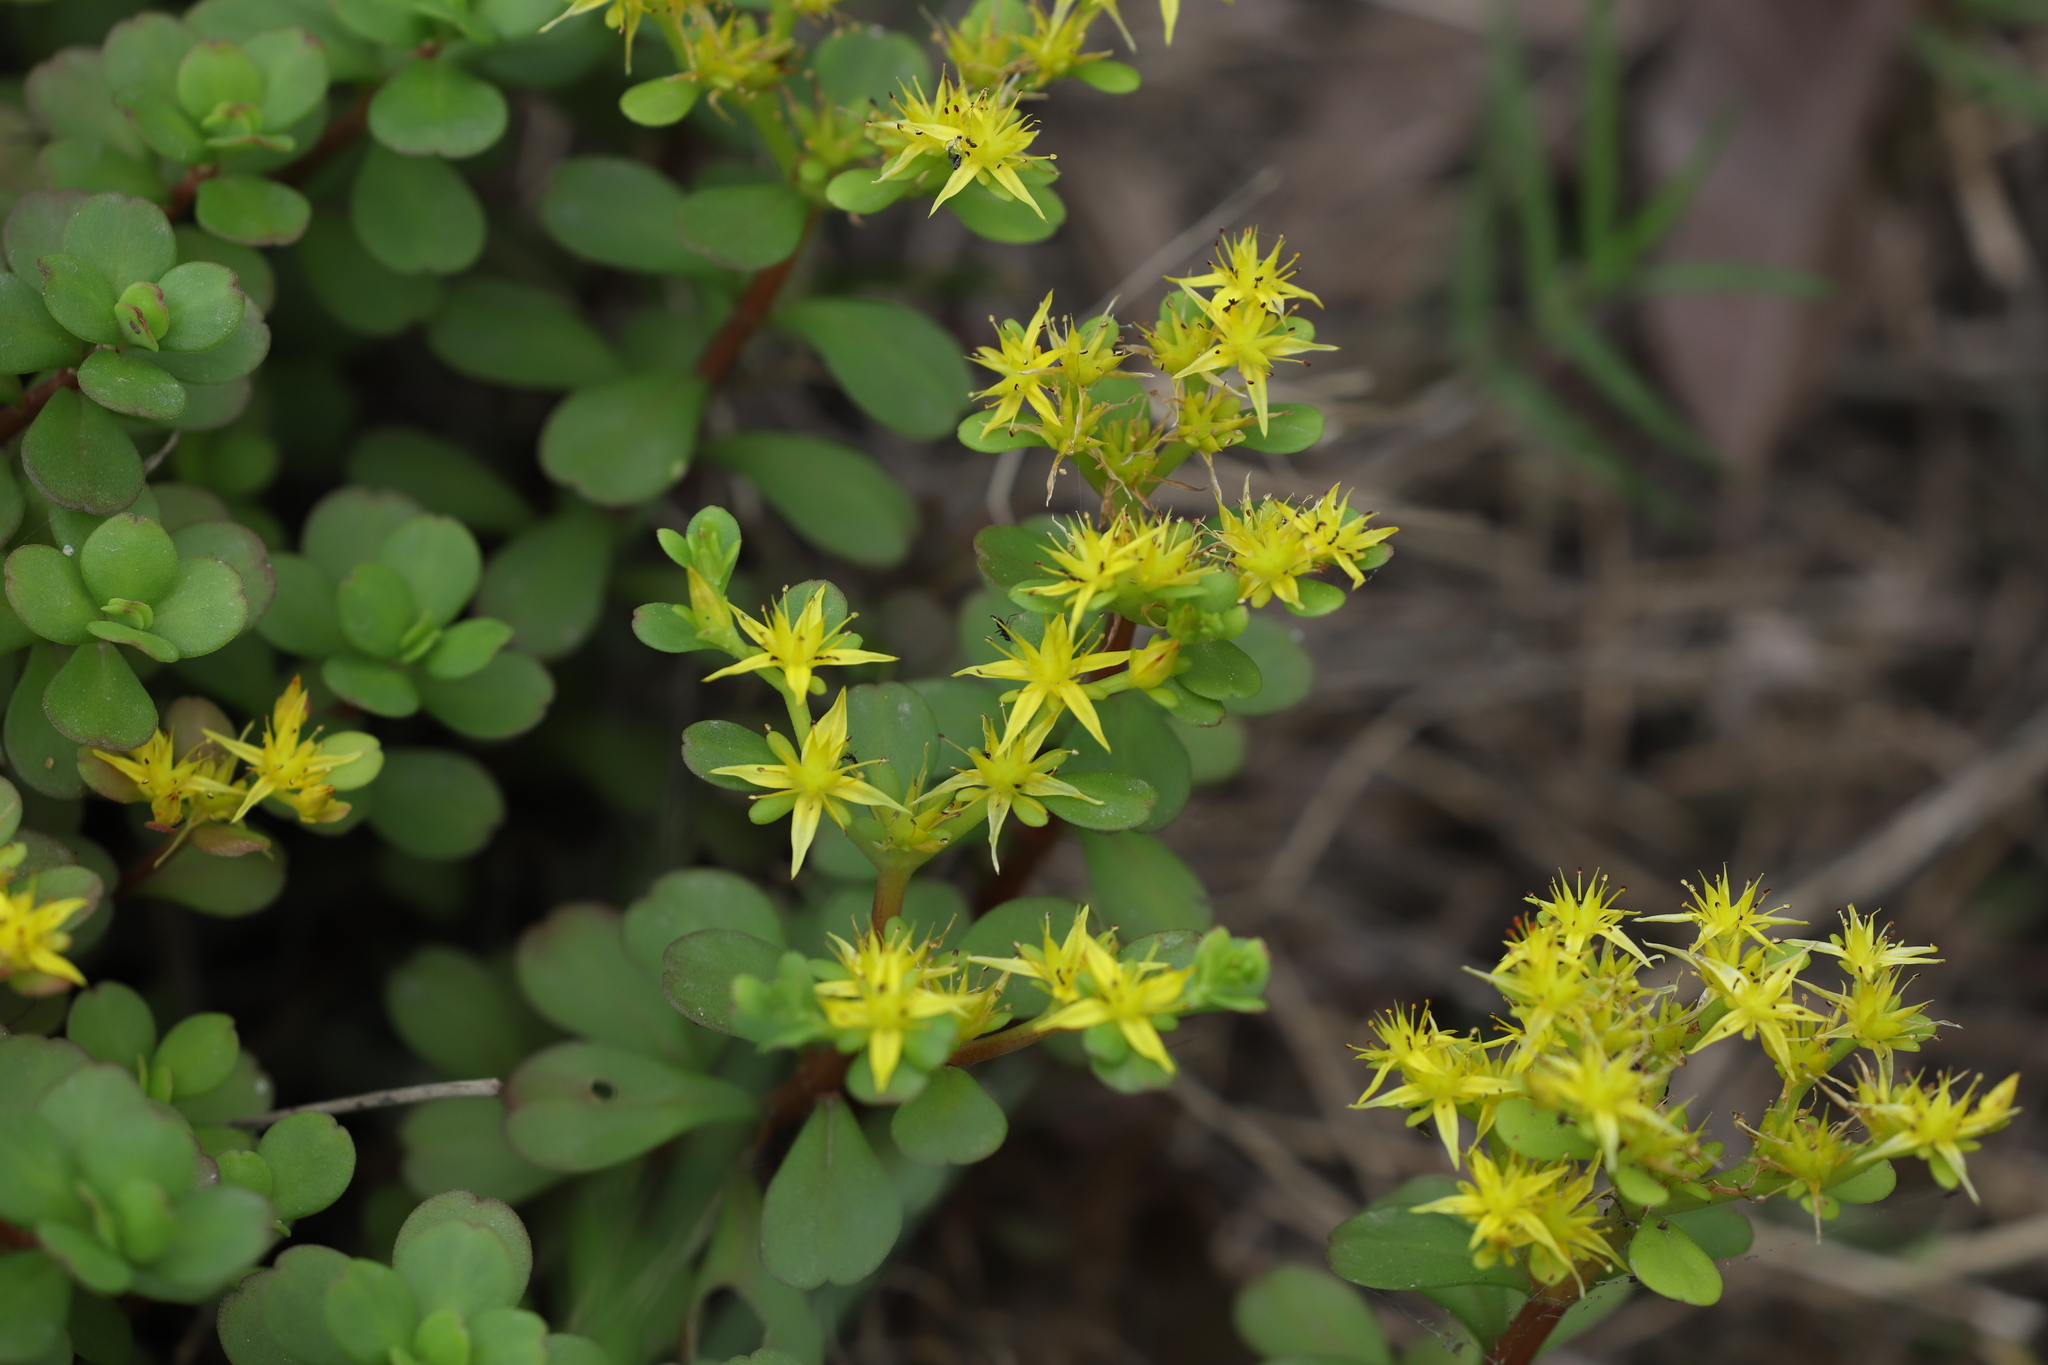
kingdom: Plantae
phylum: Tracheophyta
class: Magnoliopsida
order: Saxifragales
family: Crassulaceae
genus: Sedum
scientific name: Sedum emarginatum
